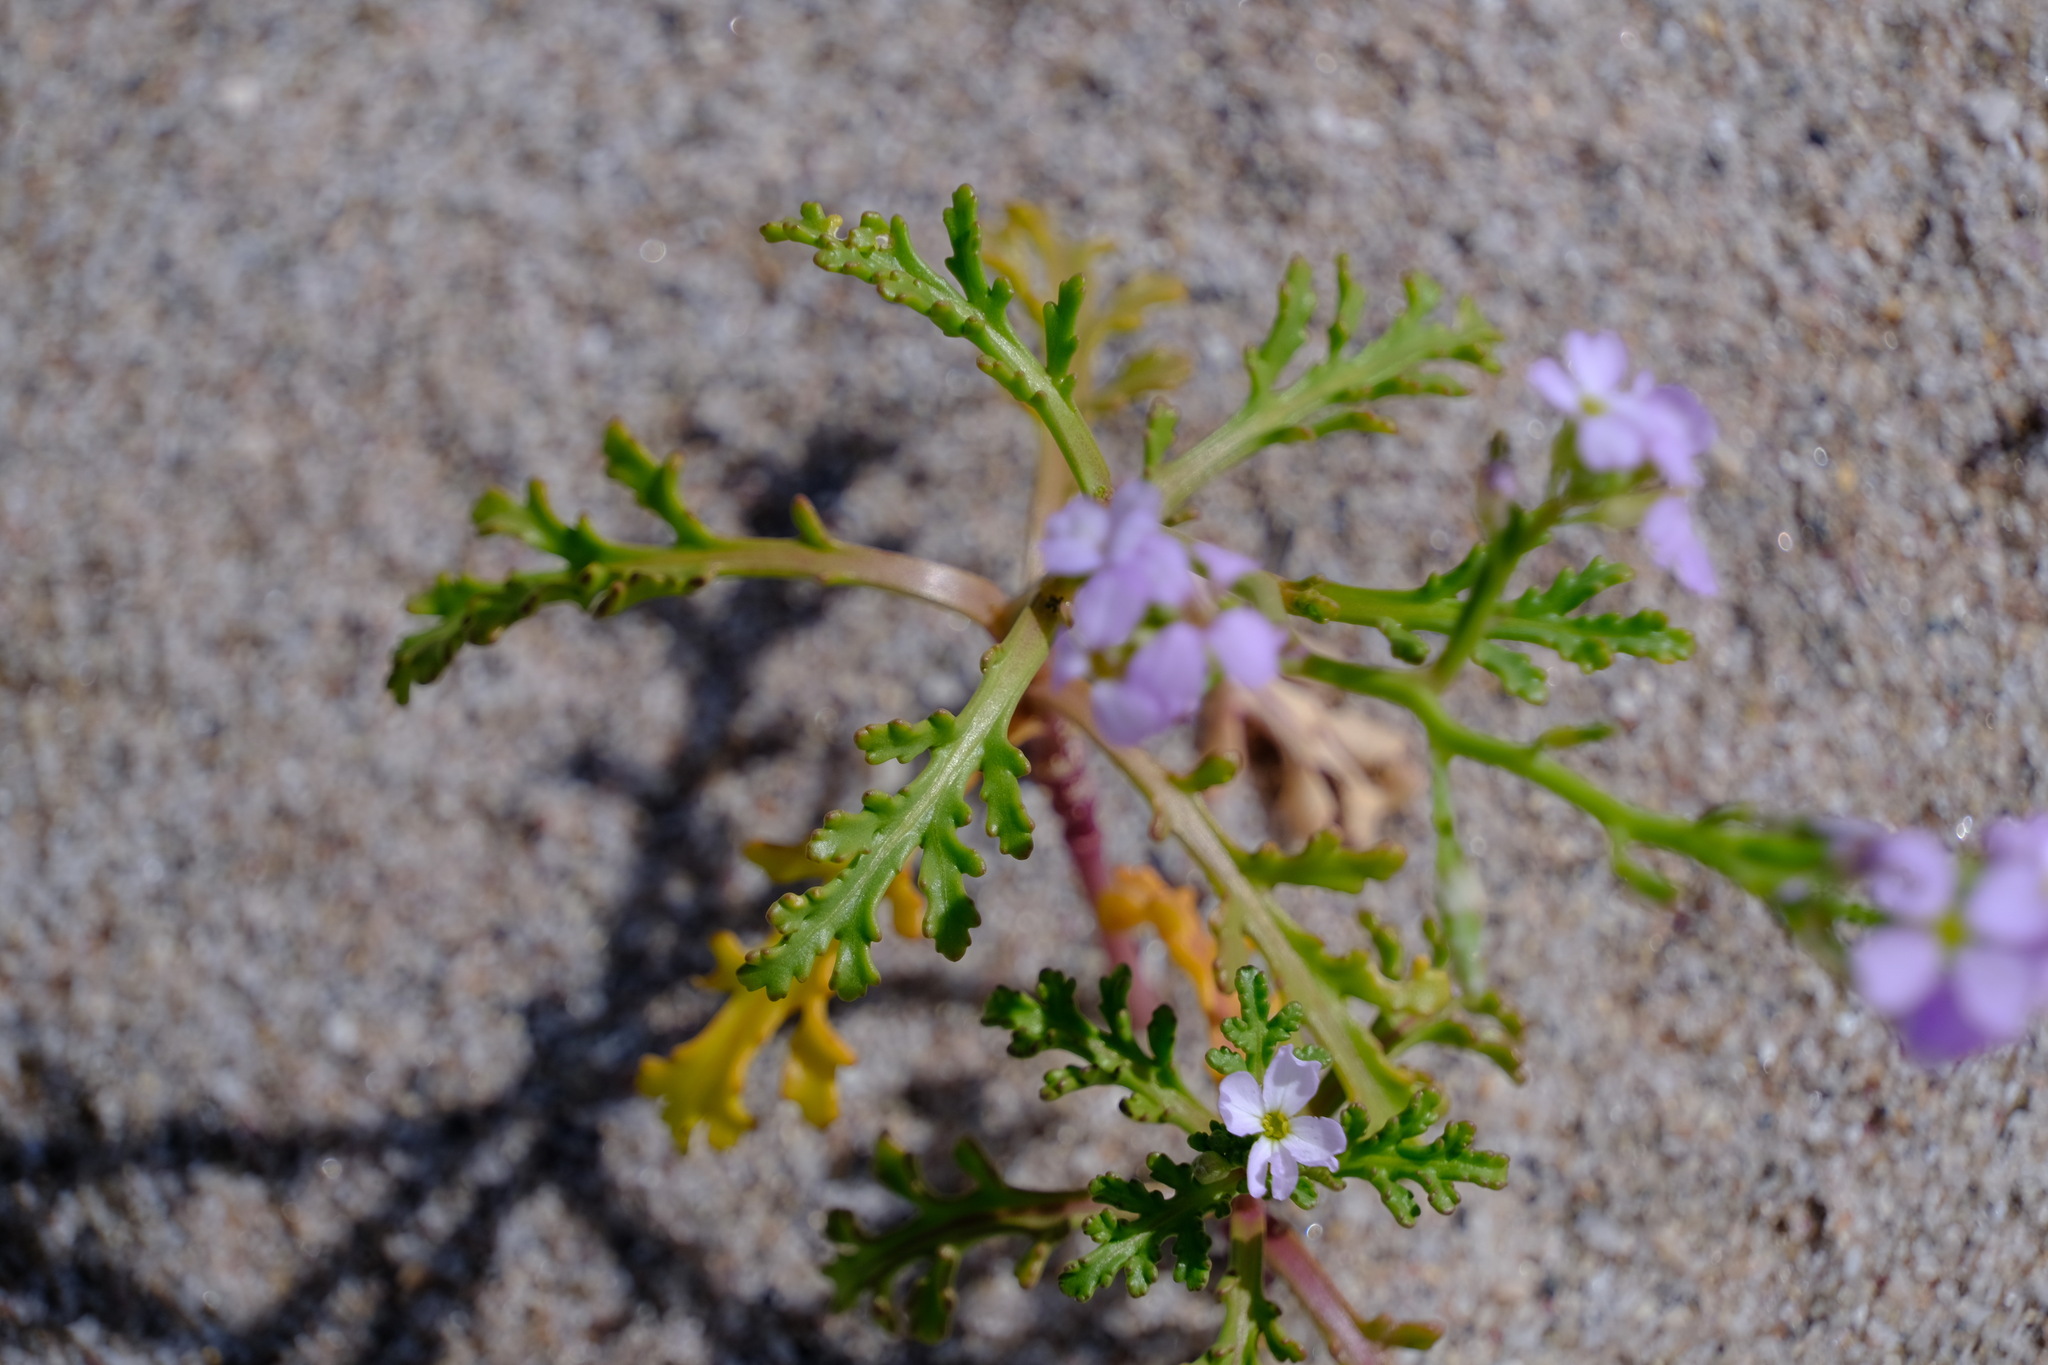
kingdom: Plantae
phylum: Tracheophyta
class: Magnoliopsida
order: Brassicales
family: Brassicaceae
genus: Cakile
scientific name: Cakile maritima
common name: Sea rocket
